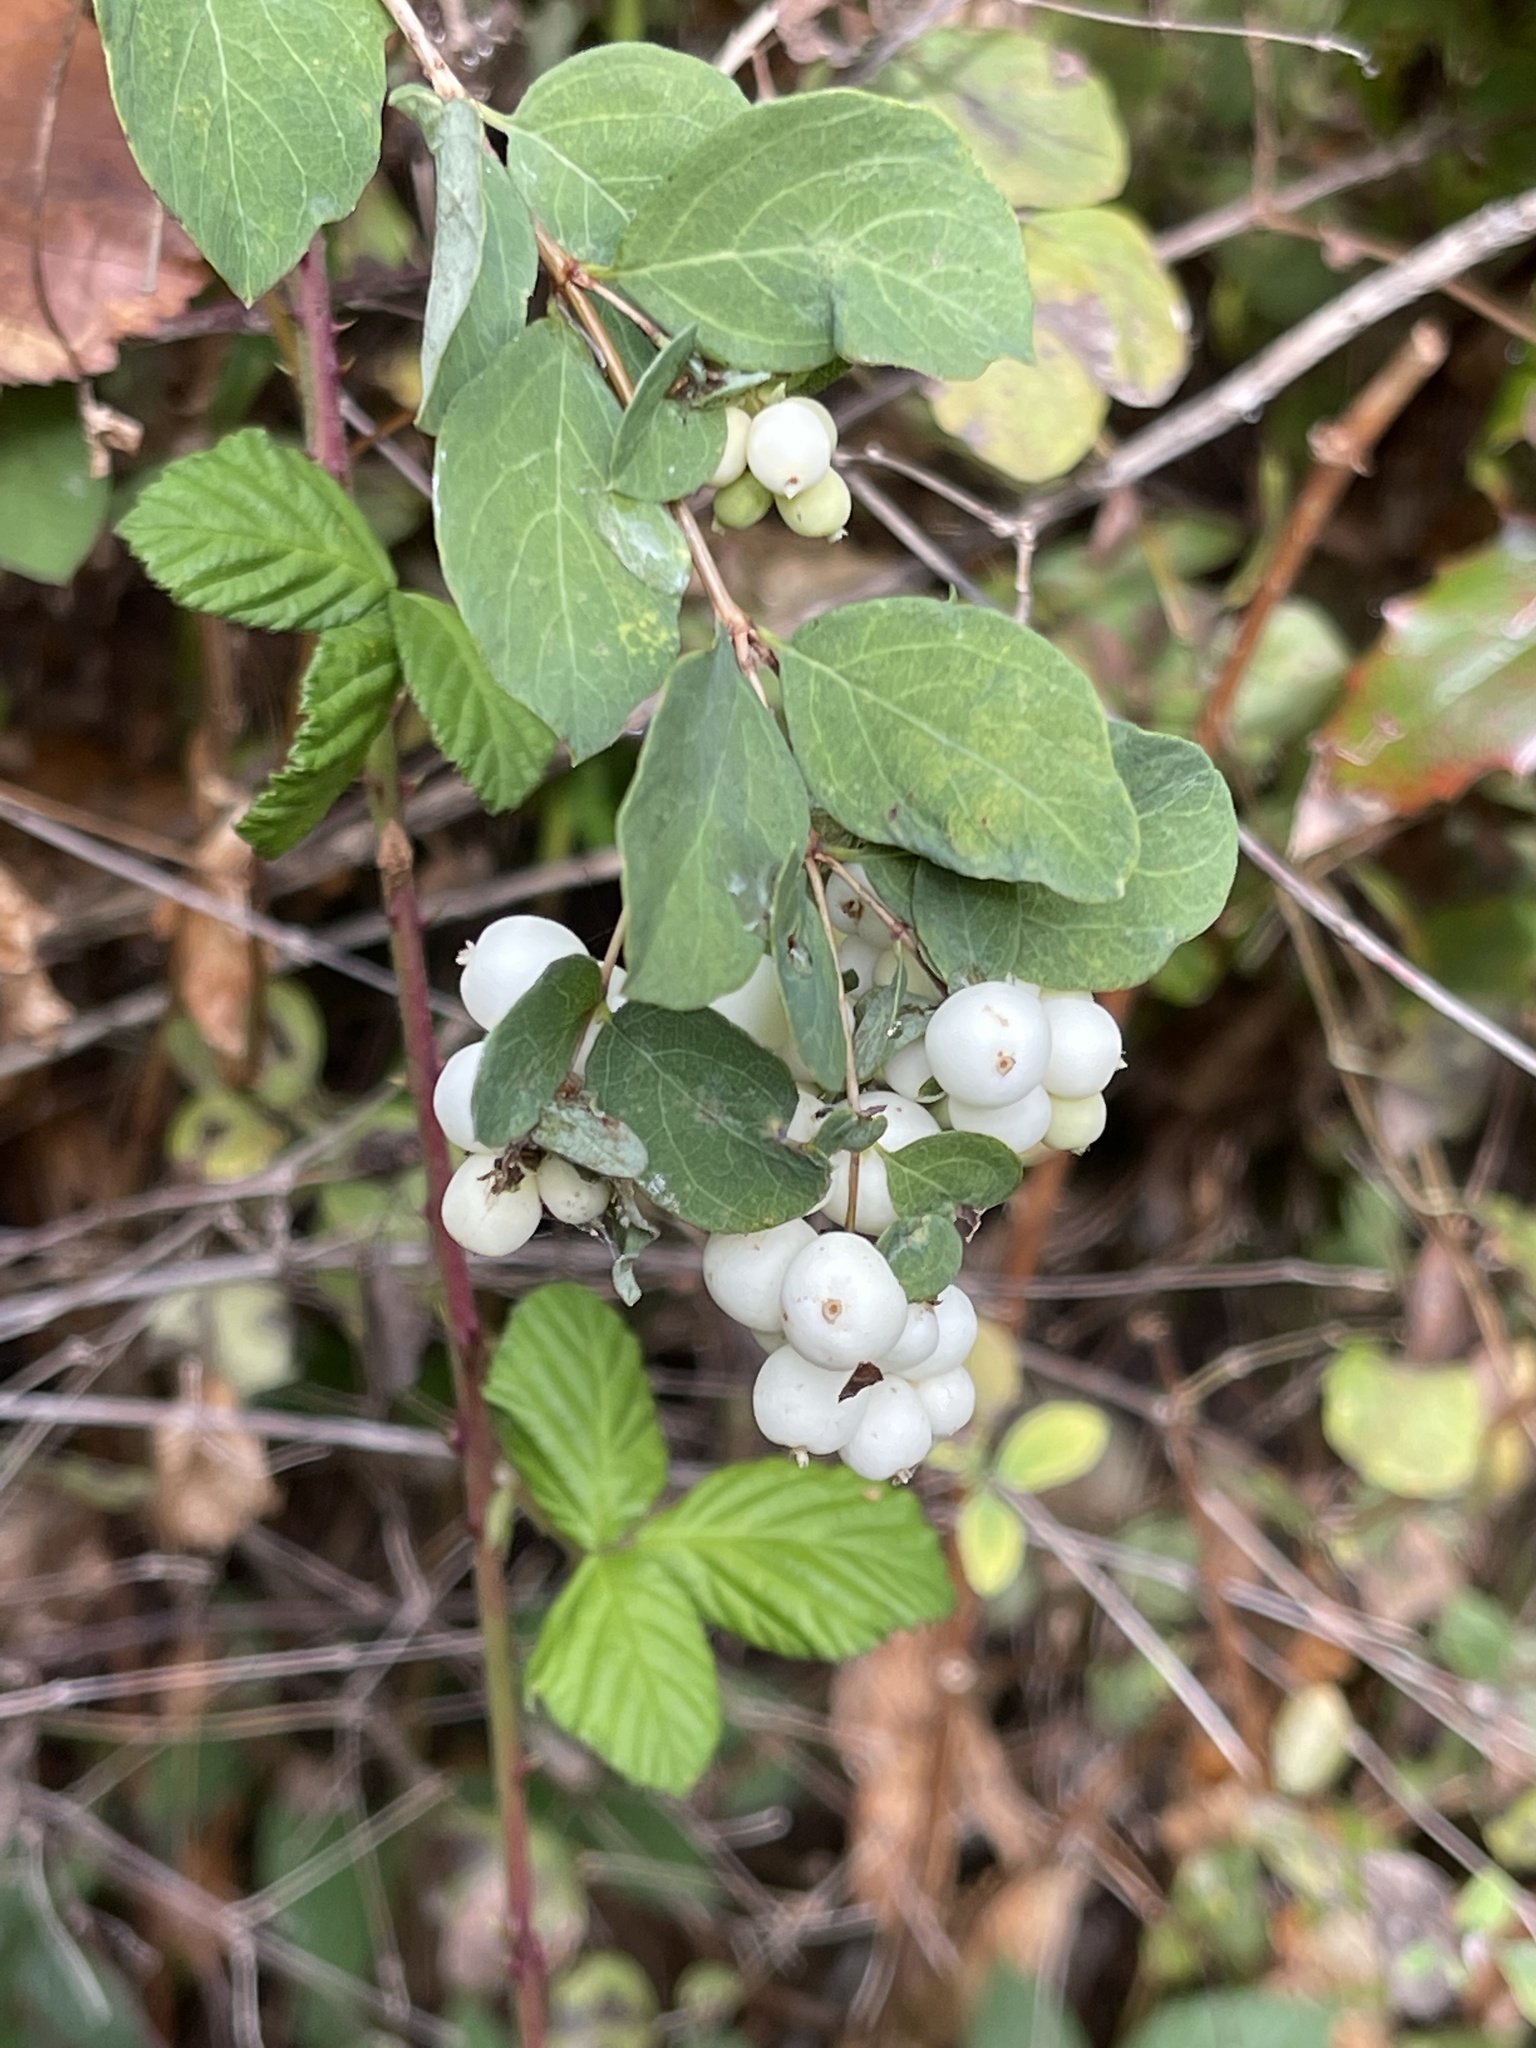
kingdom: Plantae
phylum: Tracheophyta
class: Magnoliopsida
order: Dipsacales
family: Caprifoliaceae
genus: Symphoricarpos
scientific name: Symphoricarpos albus
